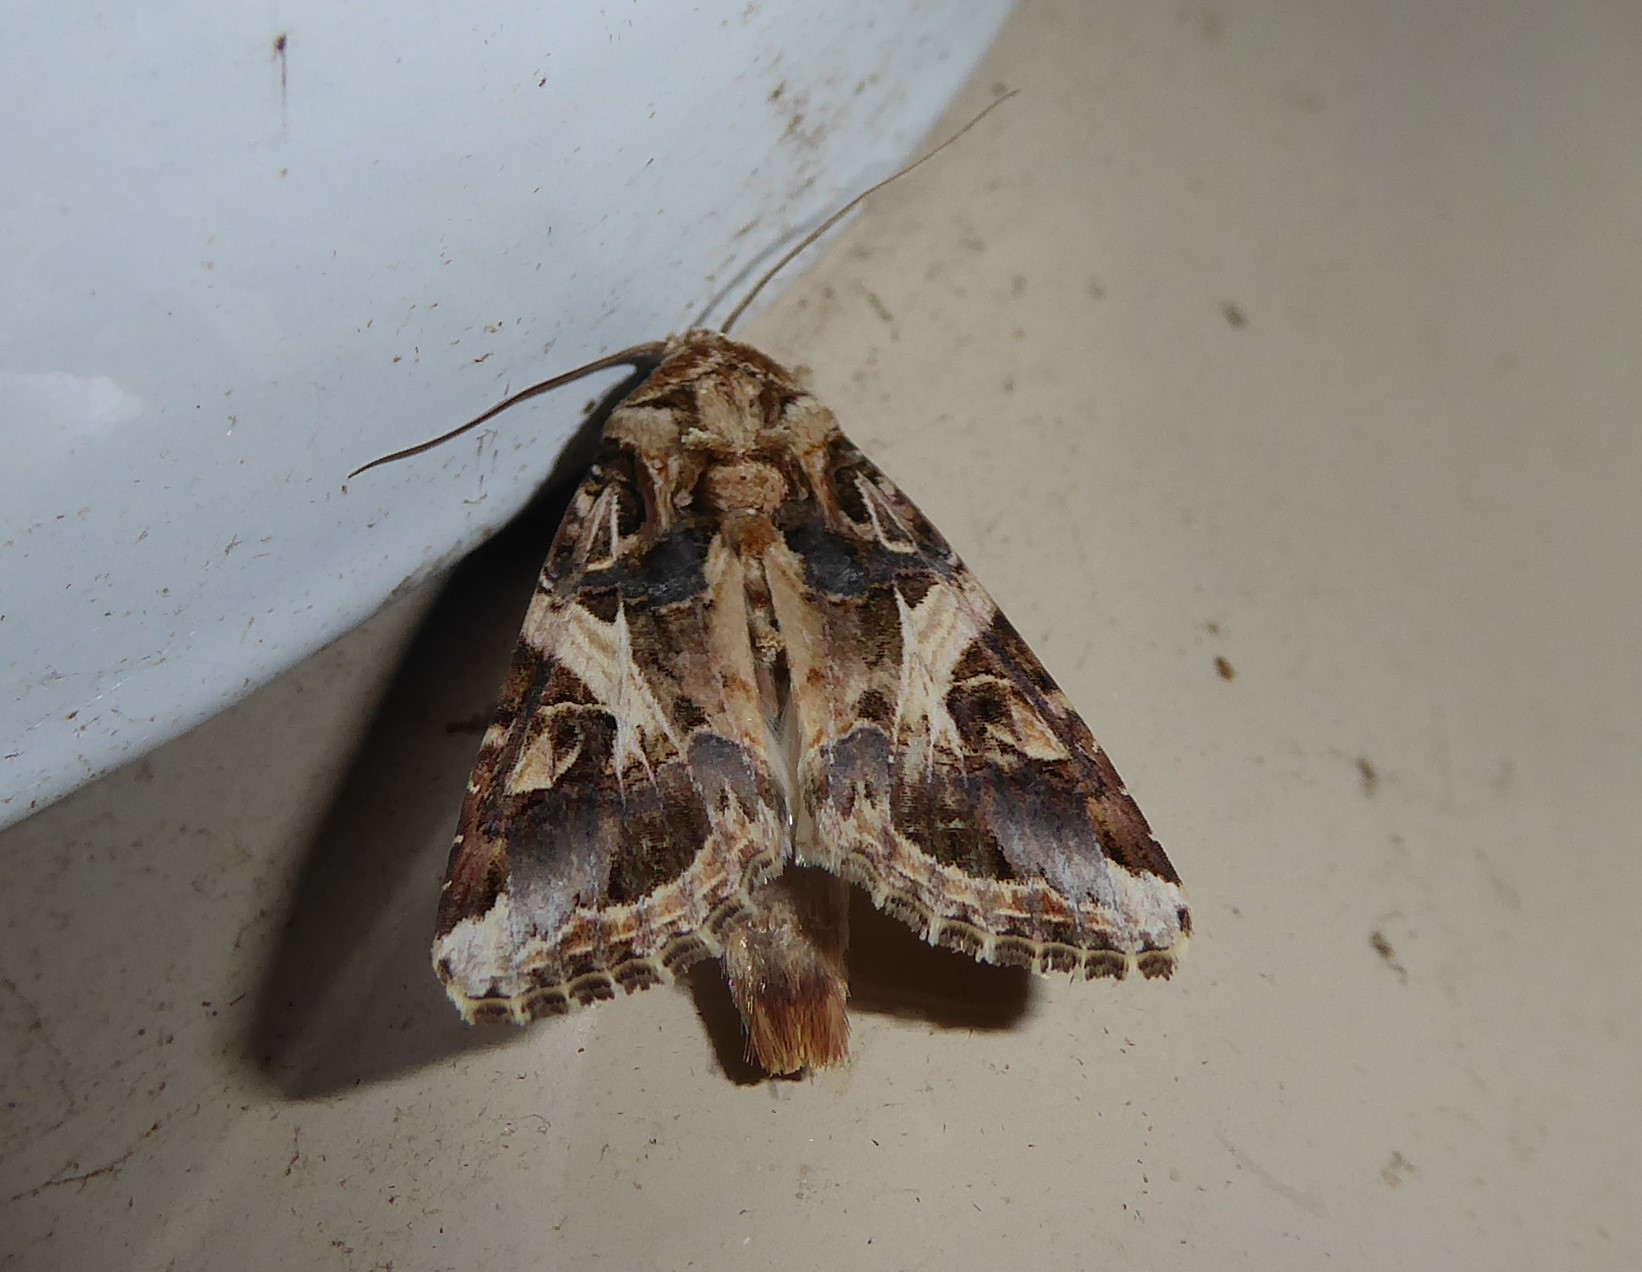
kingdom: Animalia
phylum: Arthropoda
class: Insecta
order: Lepidoptera
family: Noctuidae
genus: Spodoptera
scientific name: Spodoptera litura
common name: Asian cotton leafworm
